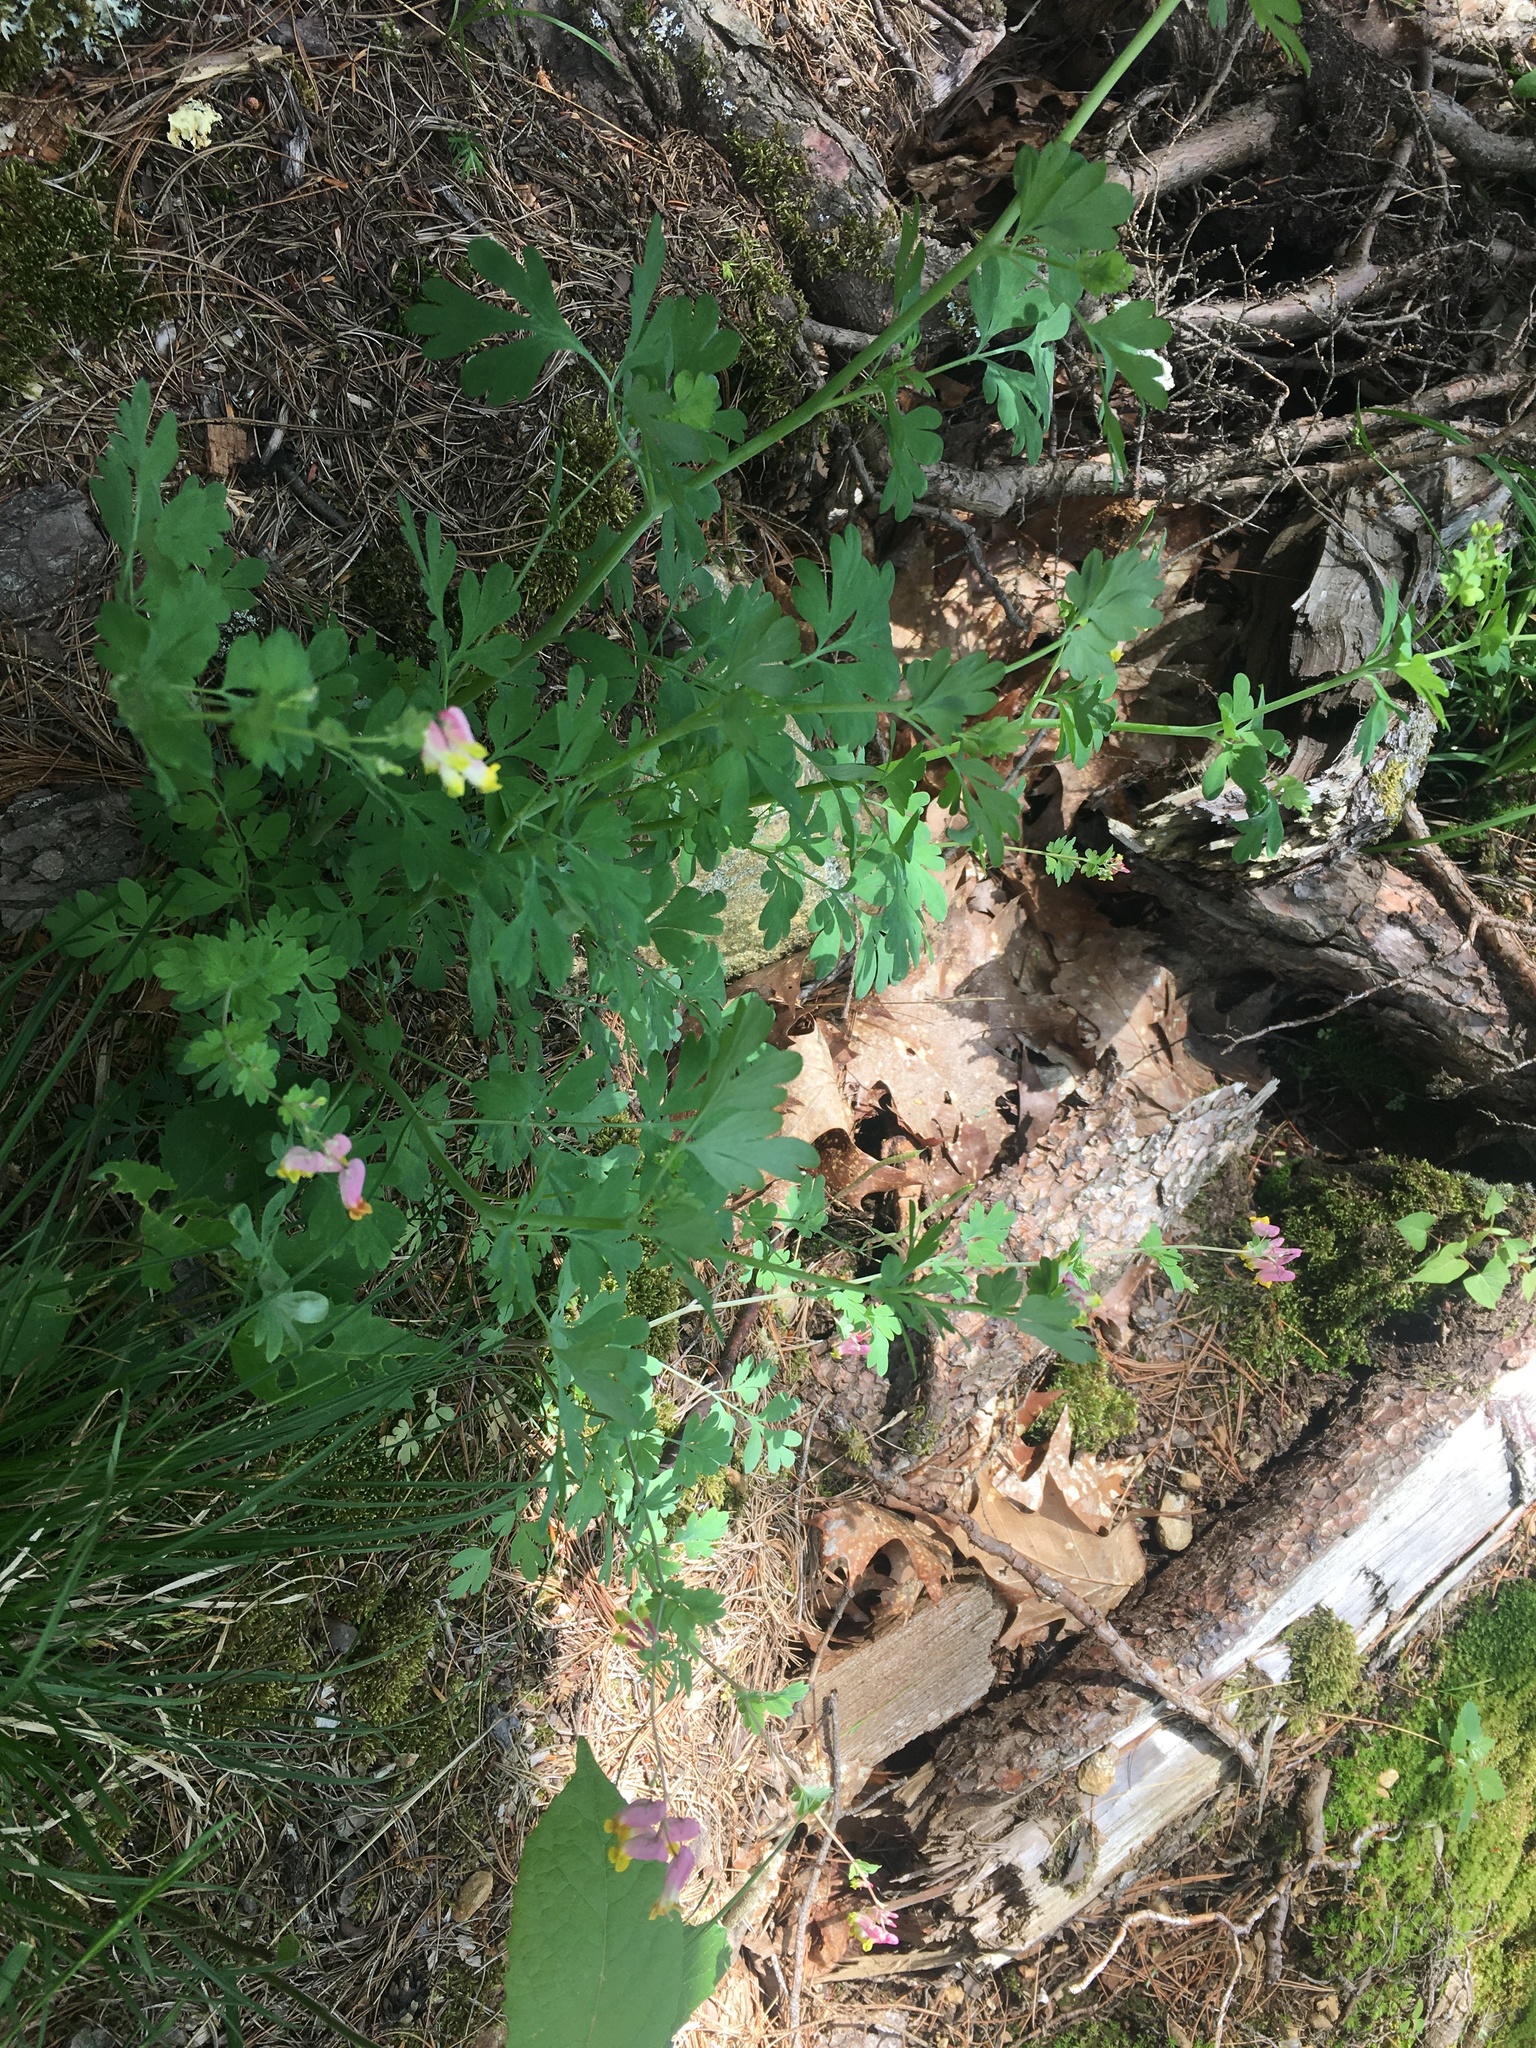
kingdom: Plantae
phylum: Tracheophyta
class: Magnoliopsida
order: Ranunculales
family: Papaveraceae
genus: Capnoides
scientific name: Capnoides sempervirens
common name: Rock harlequin
